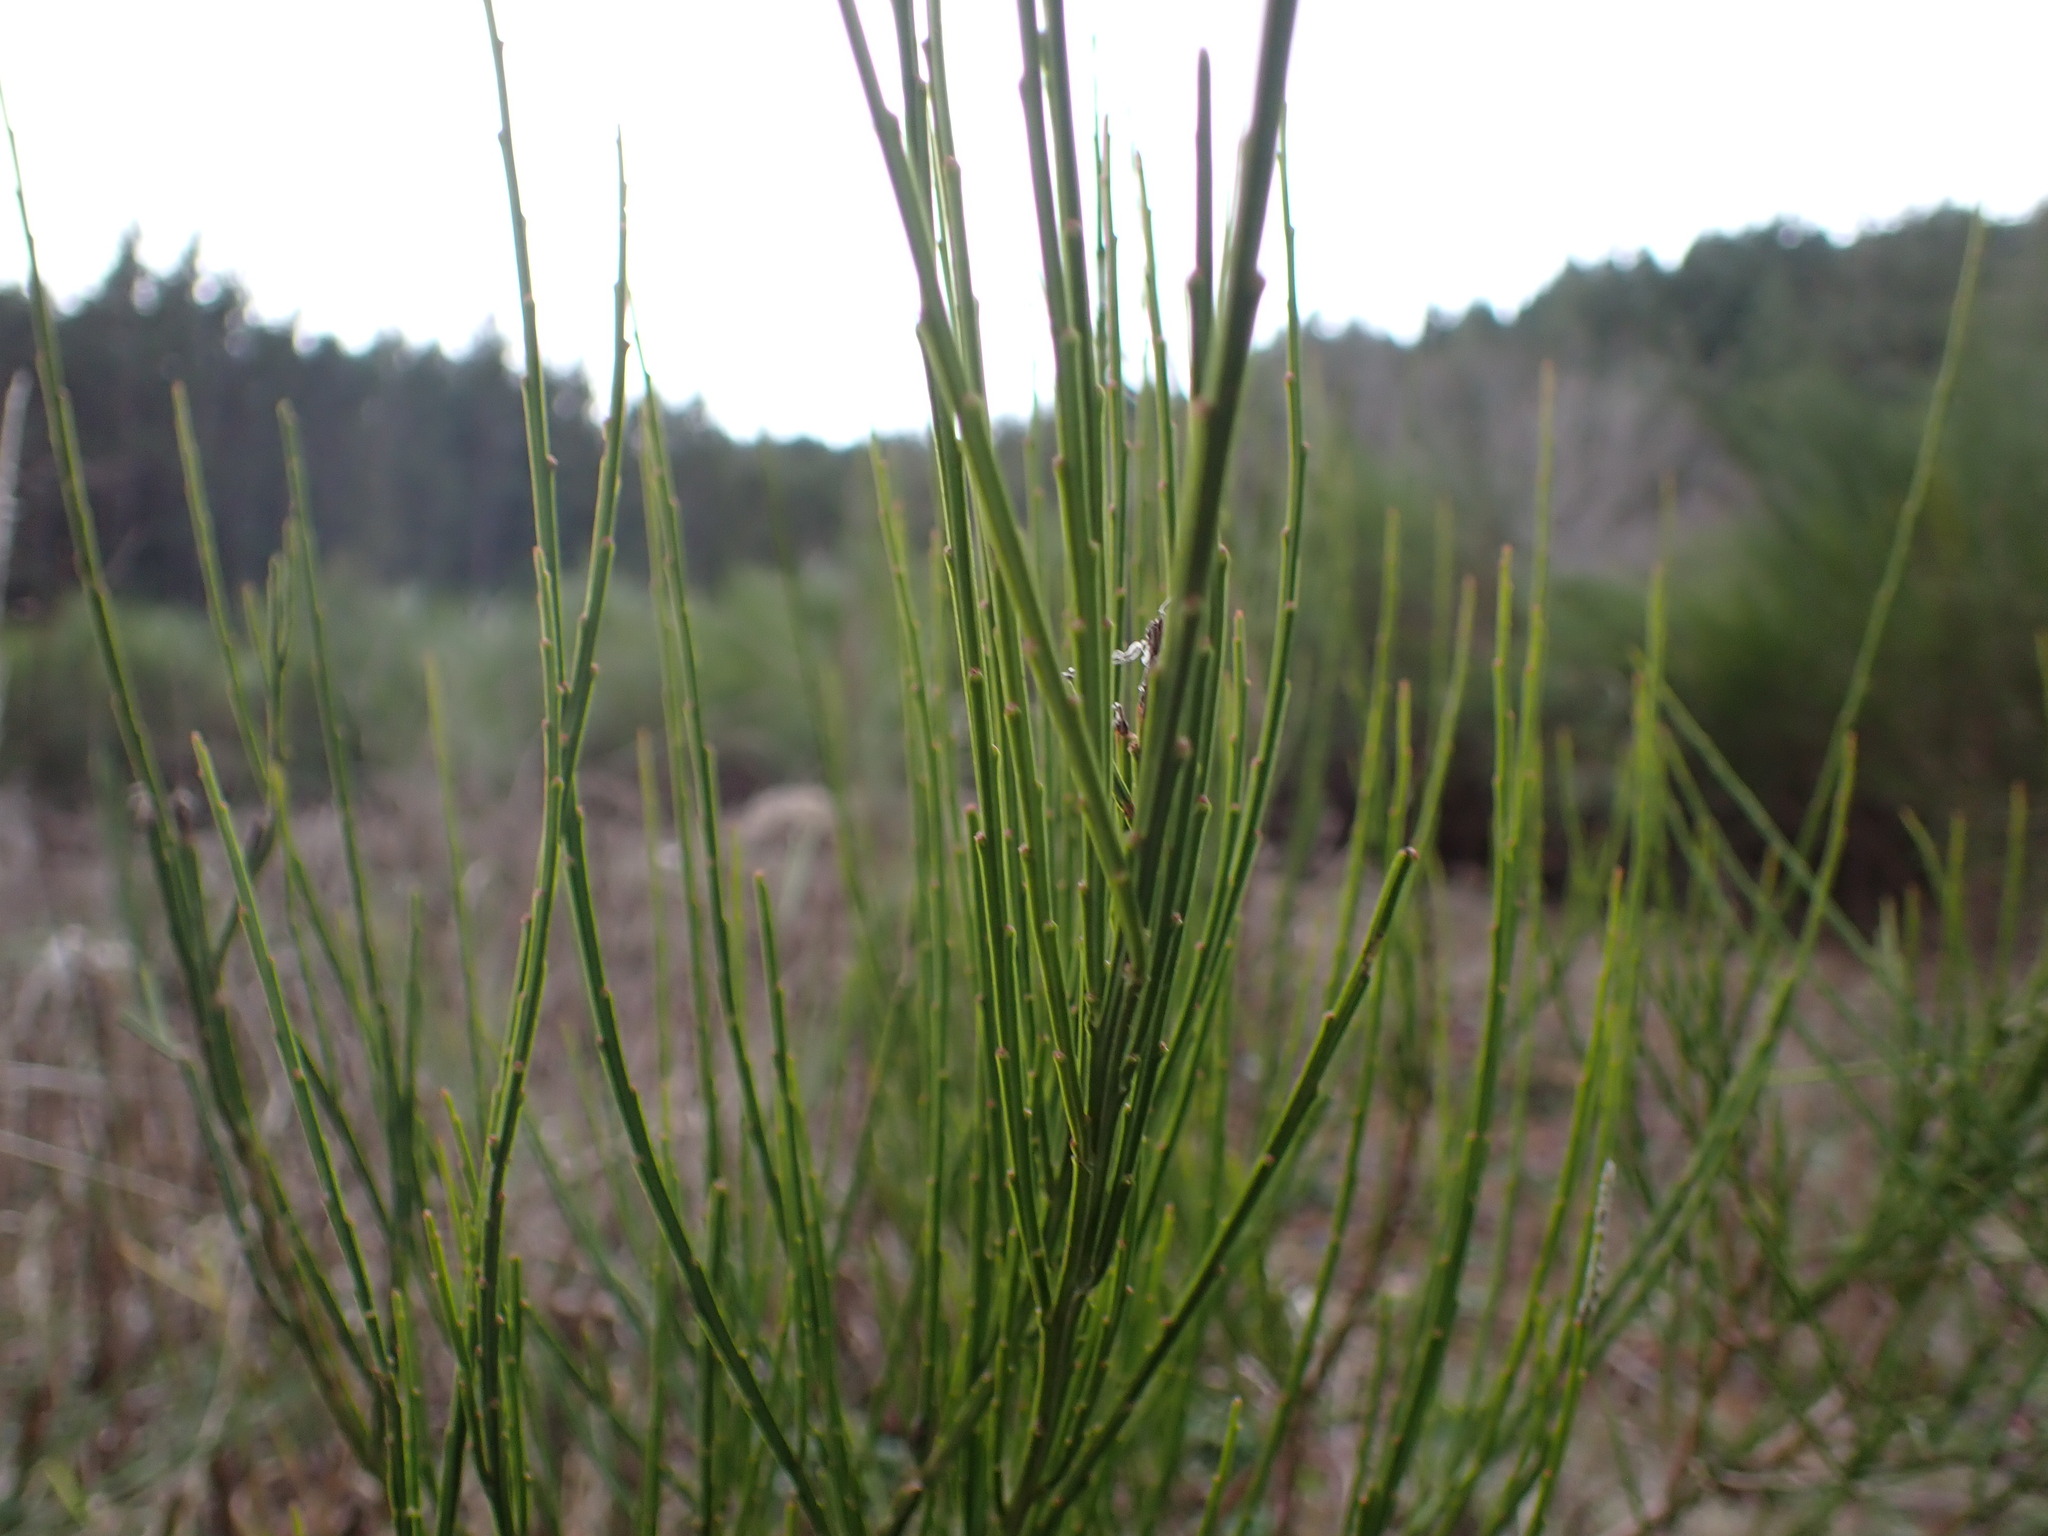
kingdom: Plantae
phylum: Tracheophyta
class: Magnoliopsida
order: Fabales
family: Fabaceae
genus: Cytisus
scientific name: Cytisus scoparius
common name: Scotch broom
